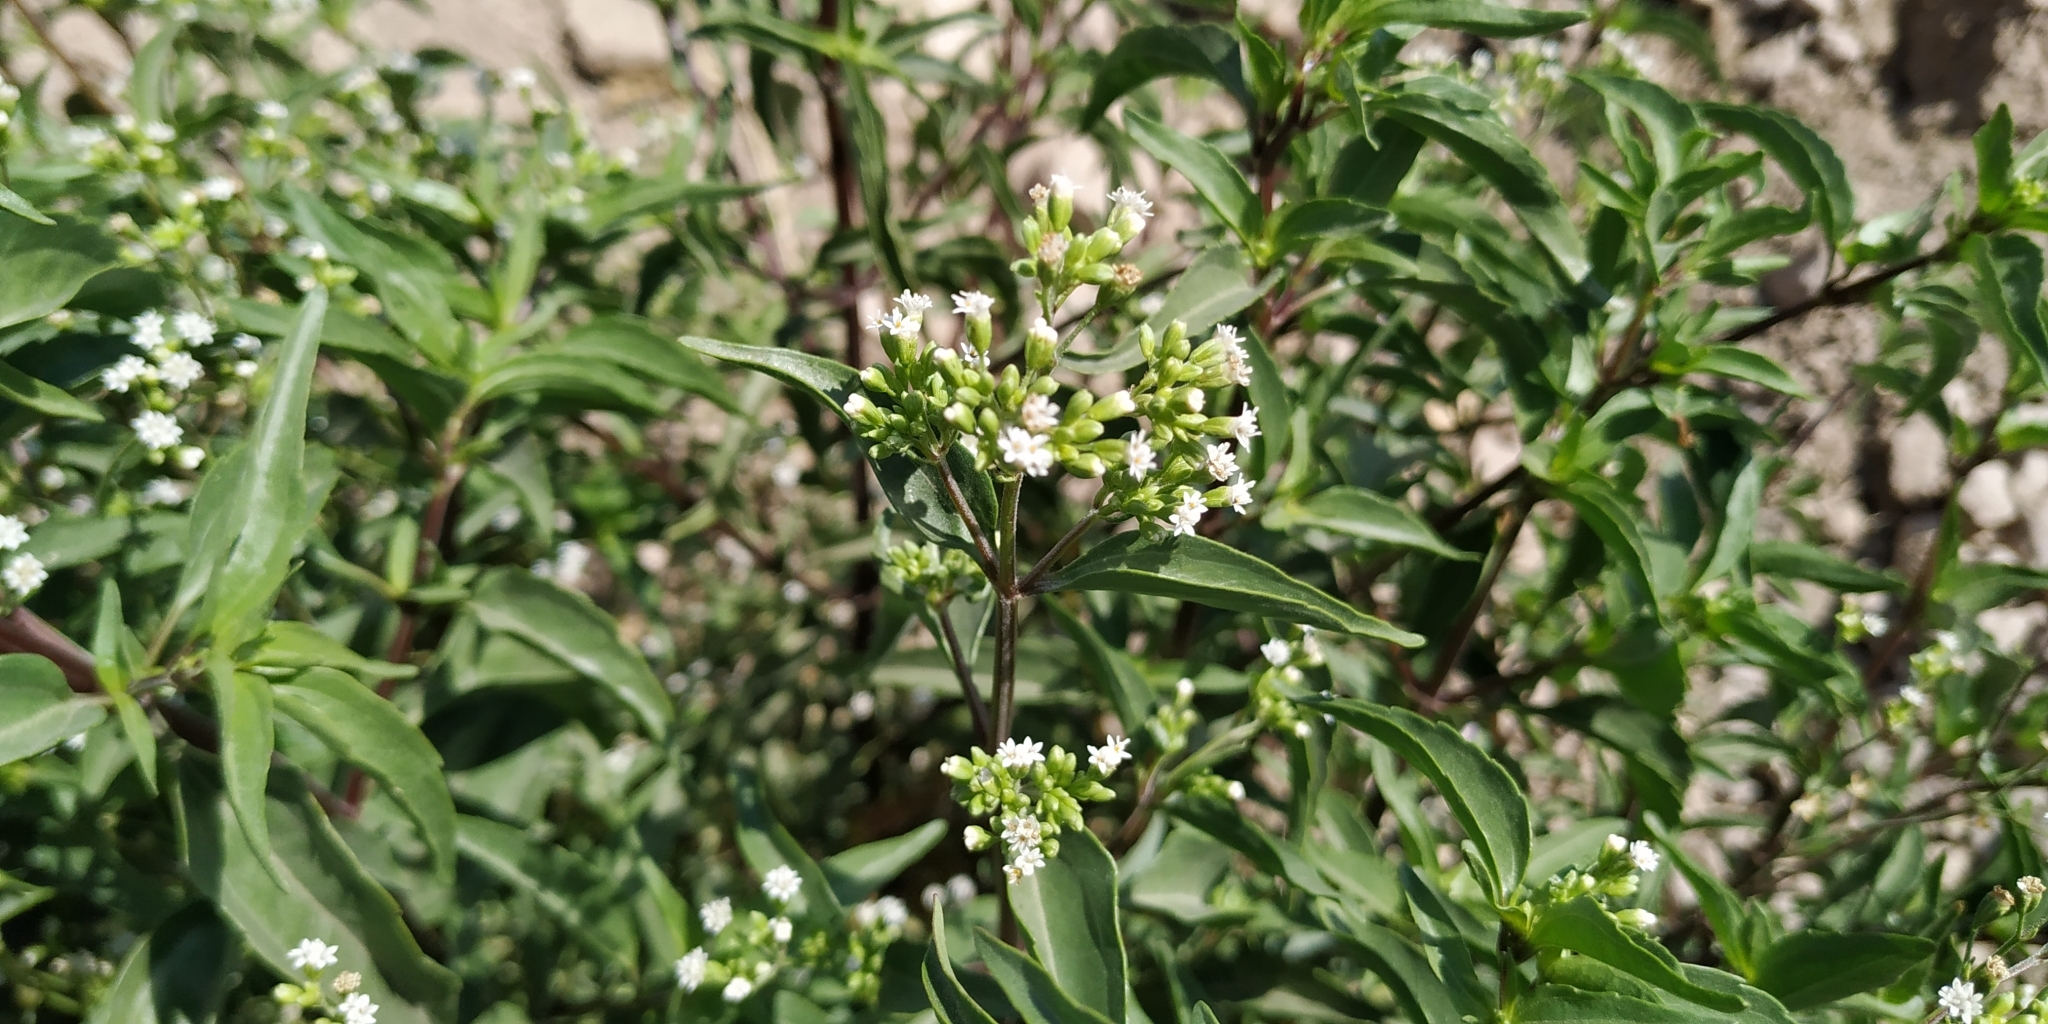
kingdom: Plantae
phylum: Tracheophyta
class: Magnoliopsida
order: Asterales
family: Asteraceae
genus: Piqueria
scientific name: Piqueria trinervia
